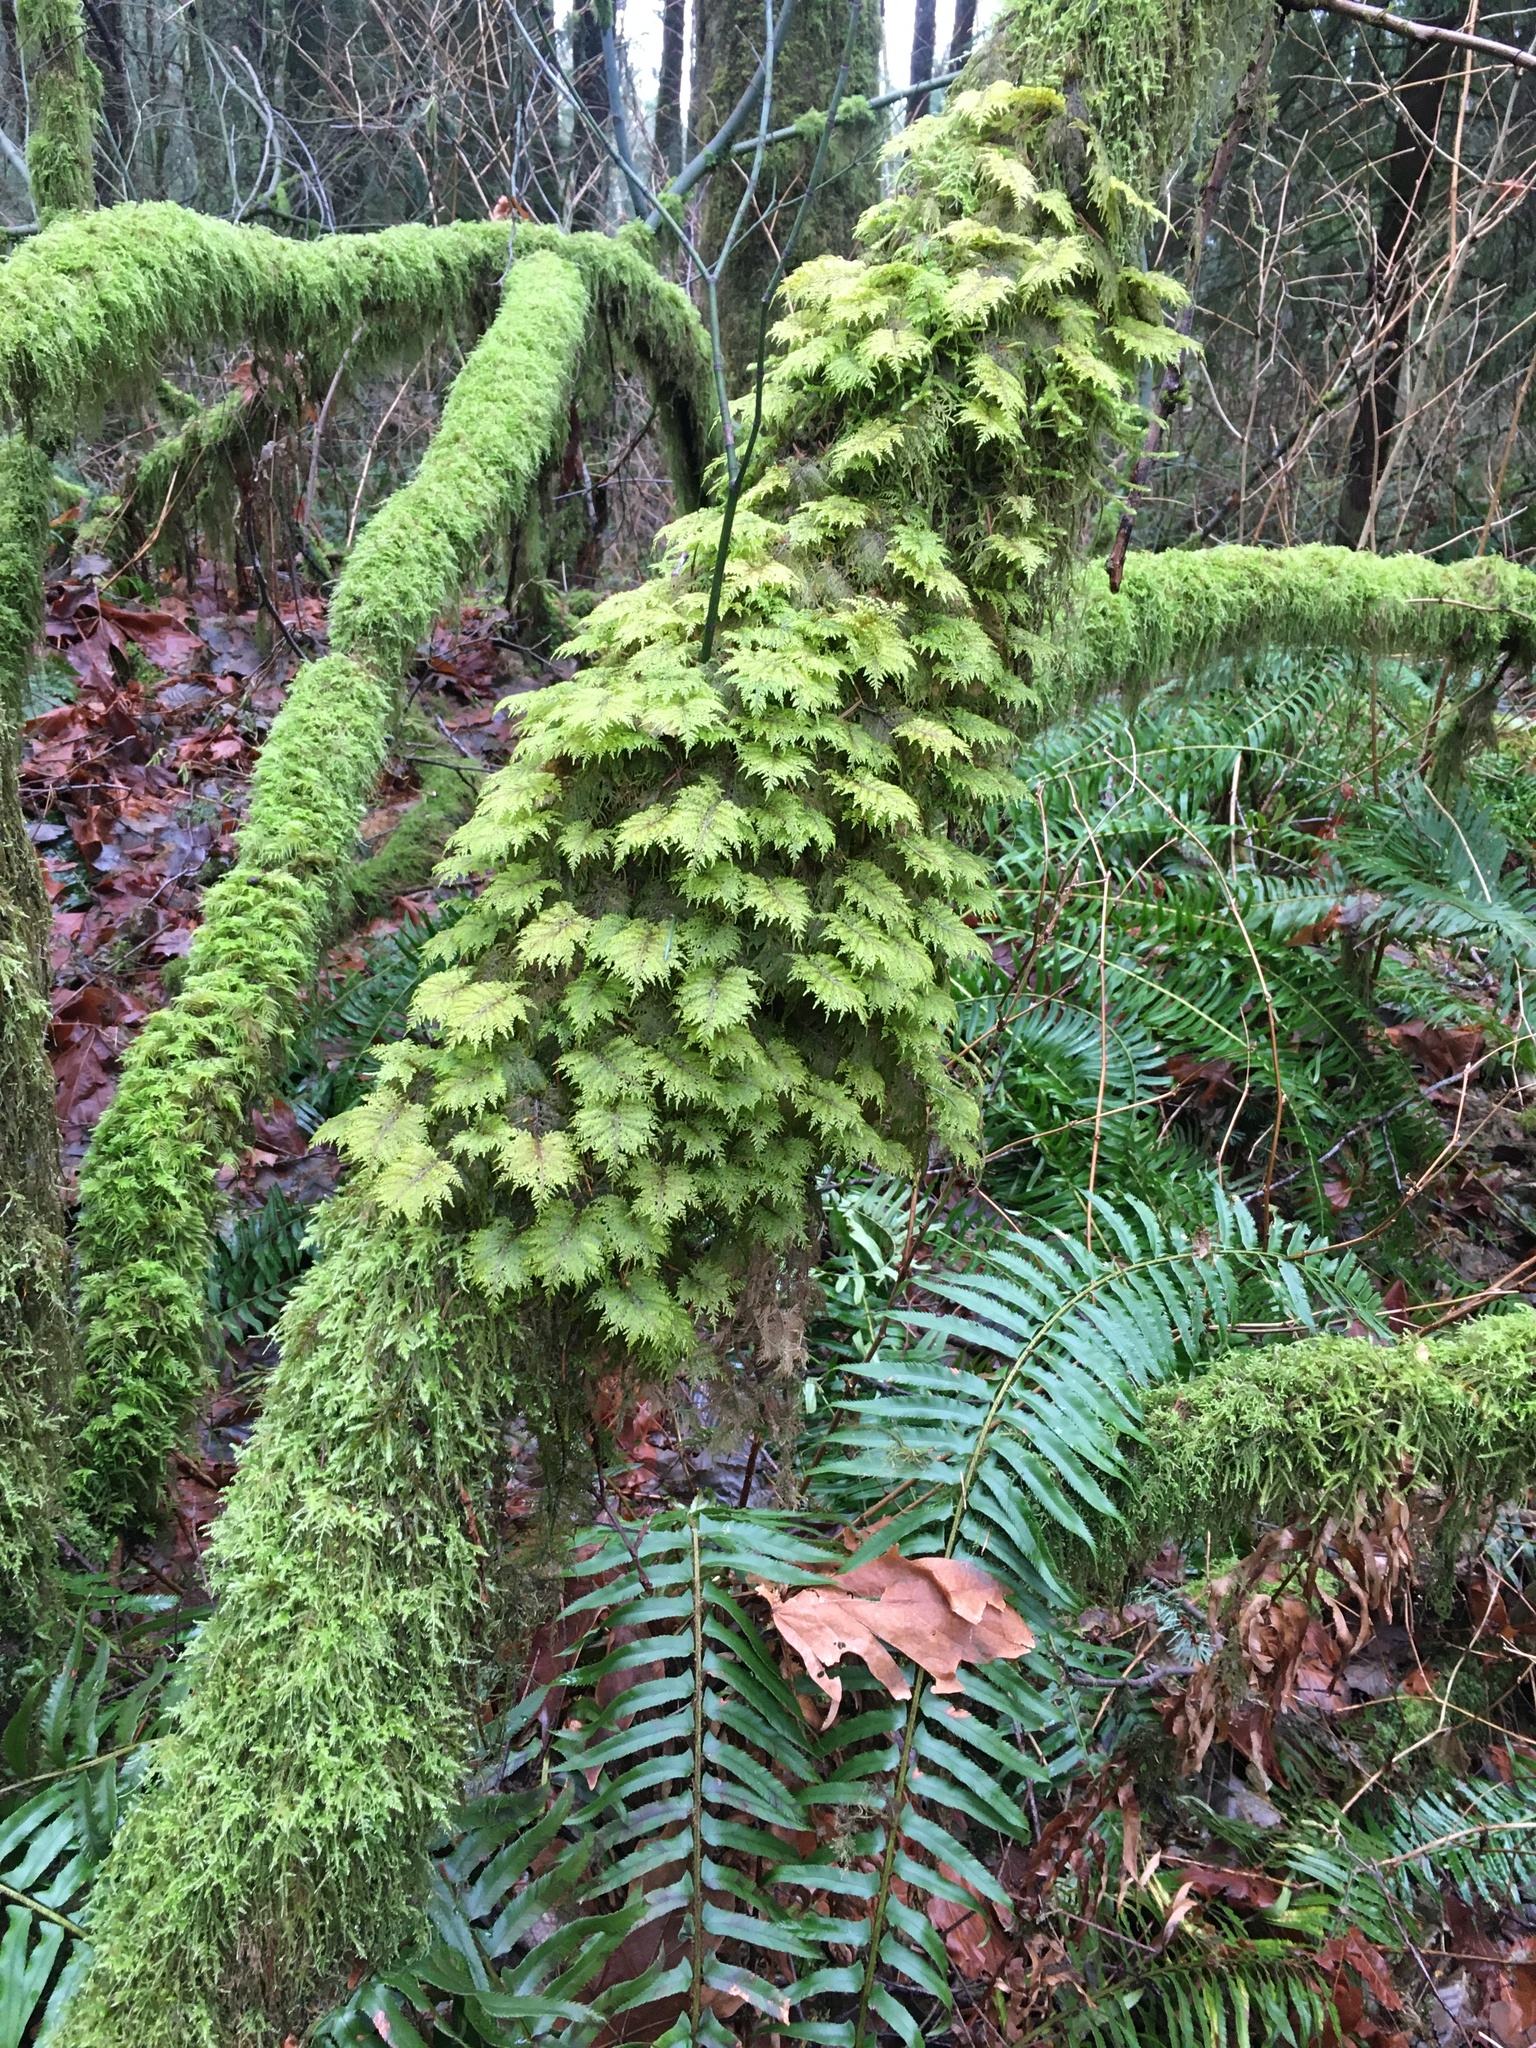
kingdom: Plantae
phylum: Bryophyta
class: Bryopsida
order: Hypnales
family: Hylocomiaceae
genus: Hylocomium
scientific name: Hylocomium splendens
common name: Stairstep moss
